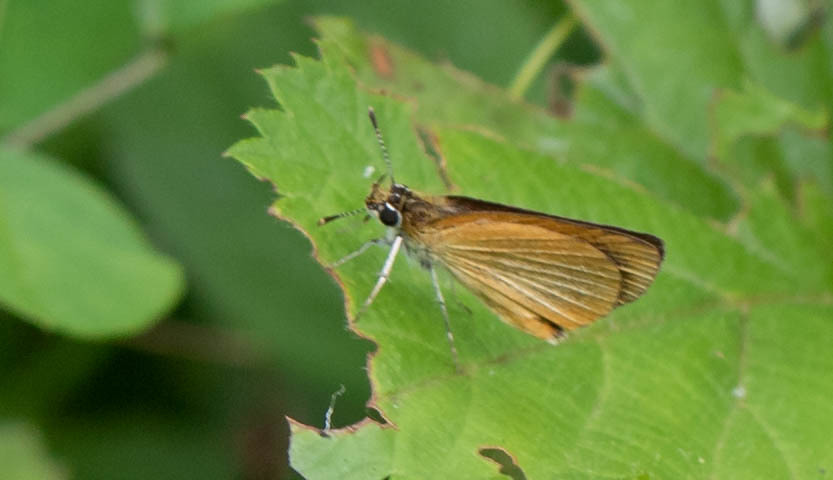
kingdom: Animalia
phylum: Arthropoda
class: Insecta
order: Lepidoptera
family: Hesperiidae
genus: Ancyloxypha
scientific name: Ancyloxypha numitor
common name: Least skipper
